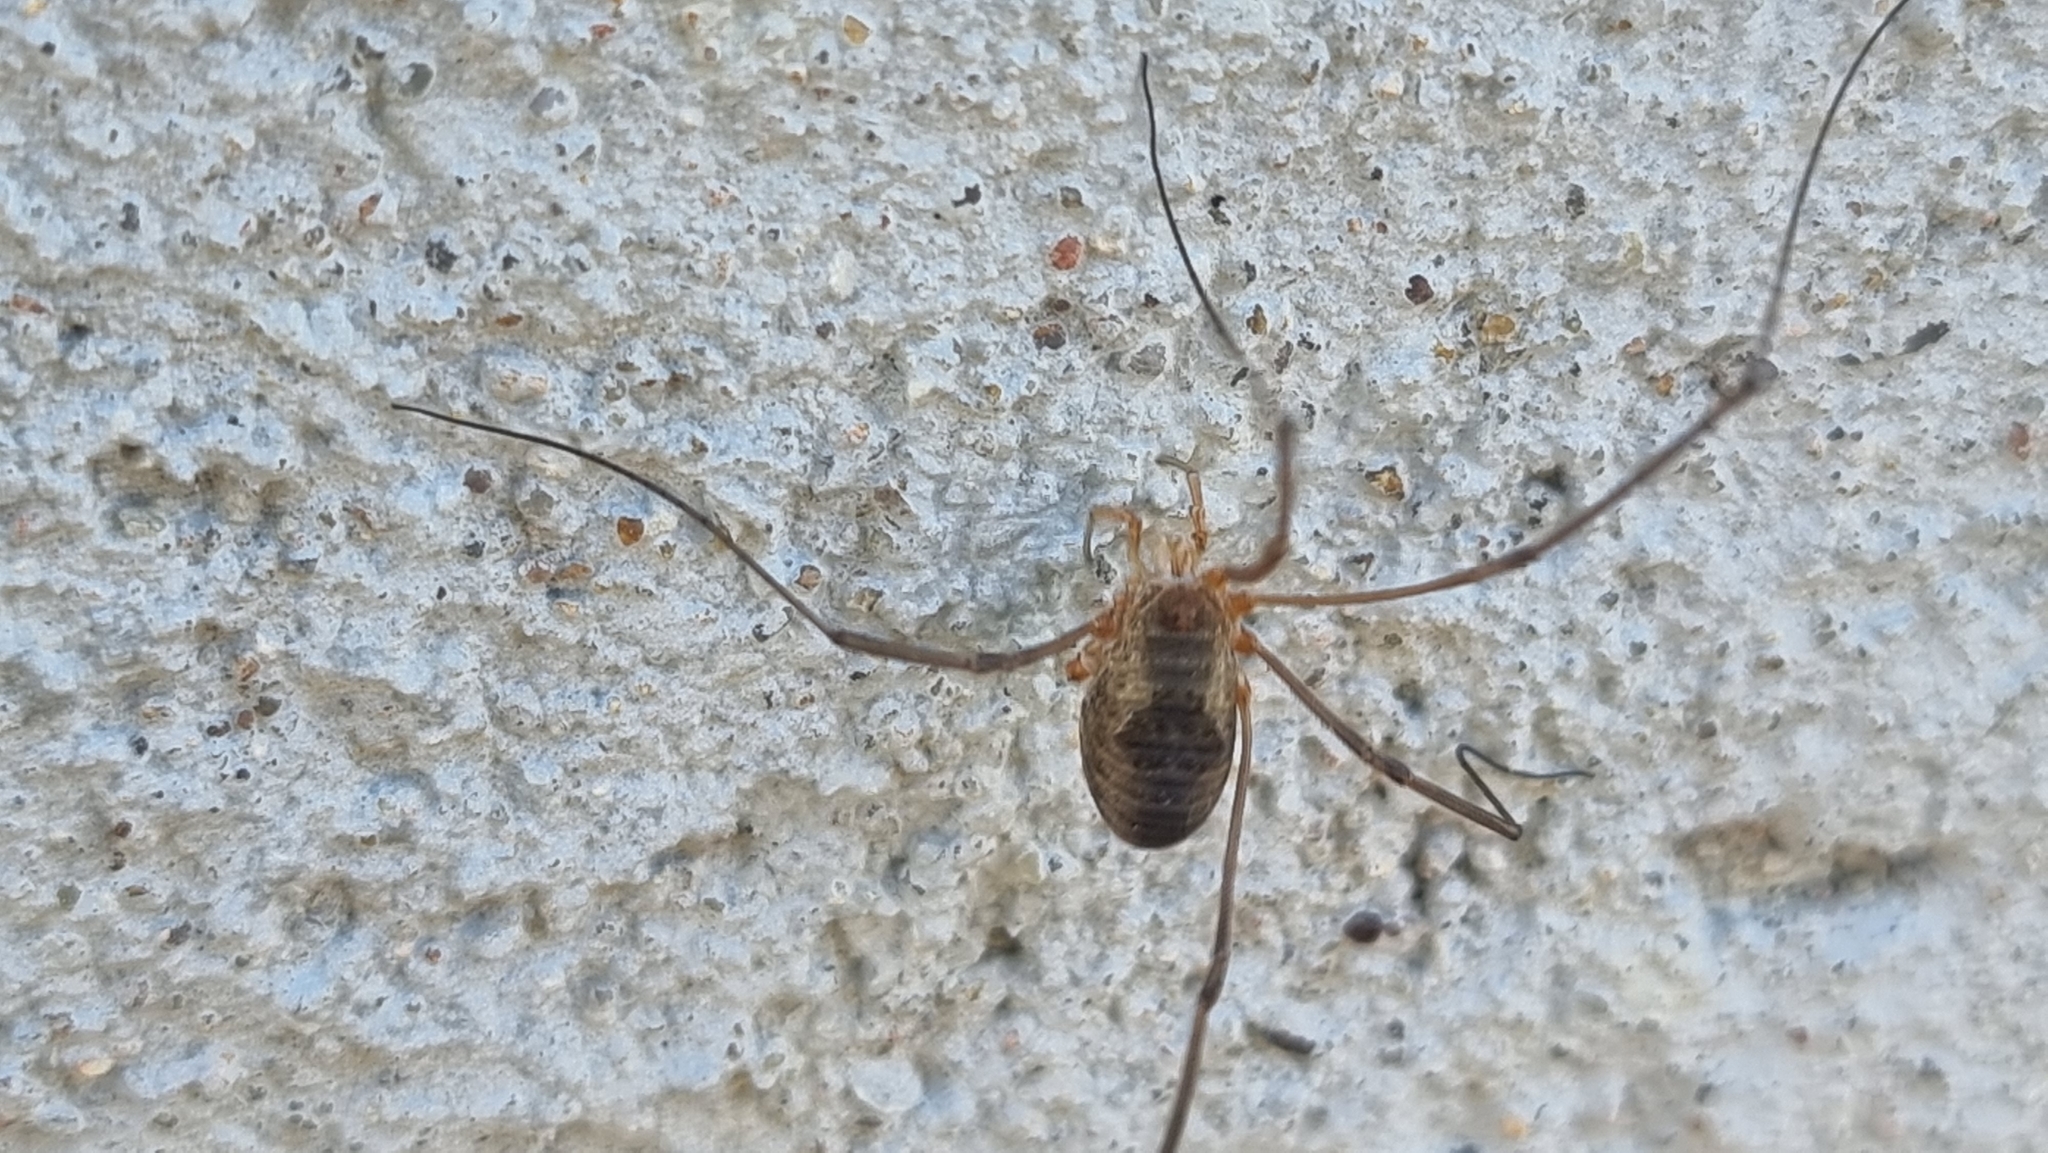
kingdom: Animalia
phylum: Arthropoda
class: Arachnida
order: Opiliones
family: Phalangiidae
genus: Phalangium
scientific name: Phalangium opilio
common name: Daddy longleg
